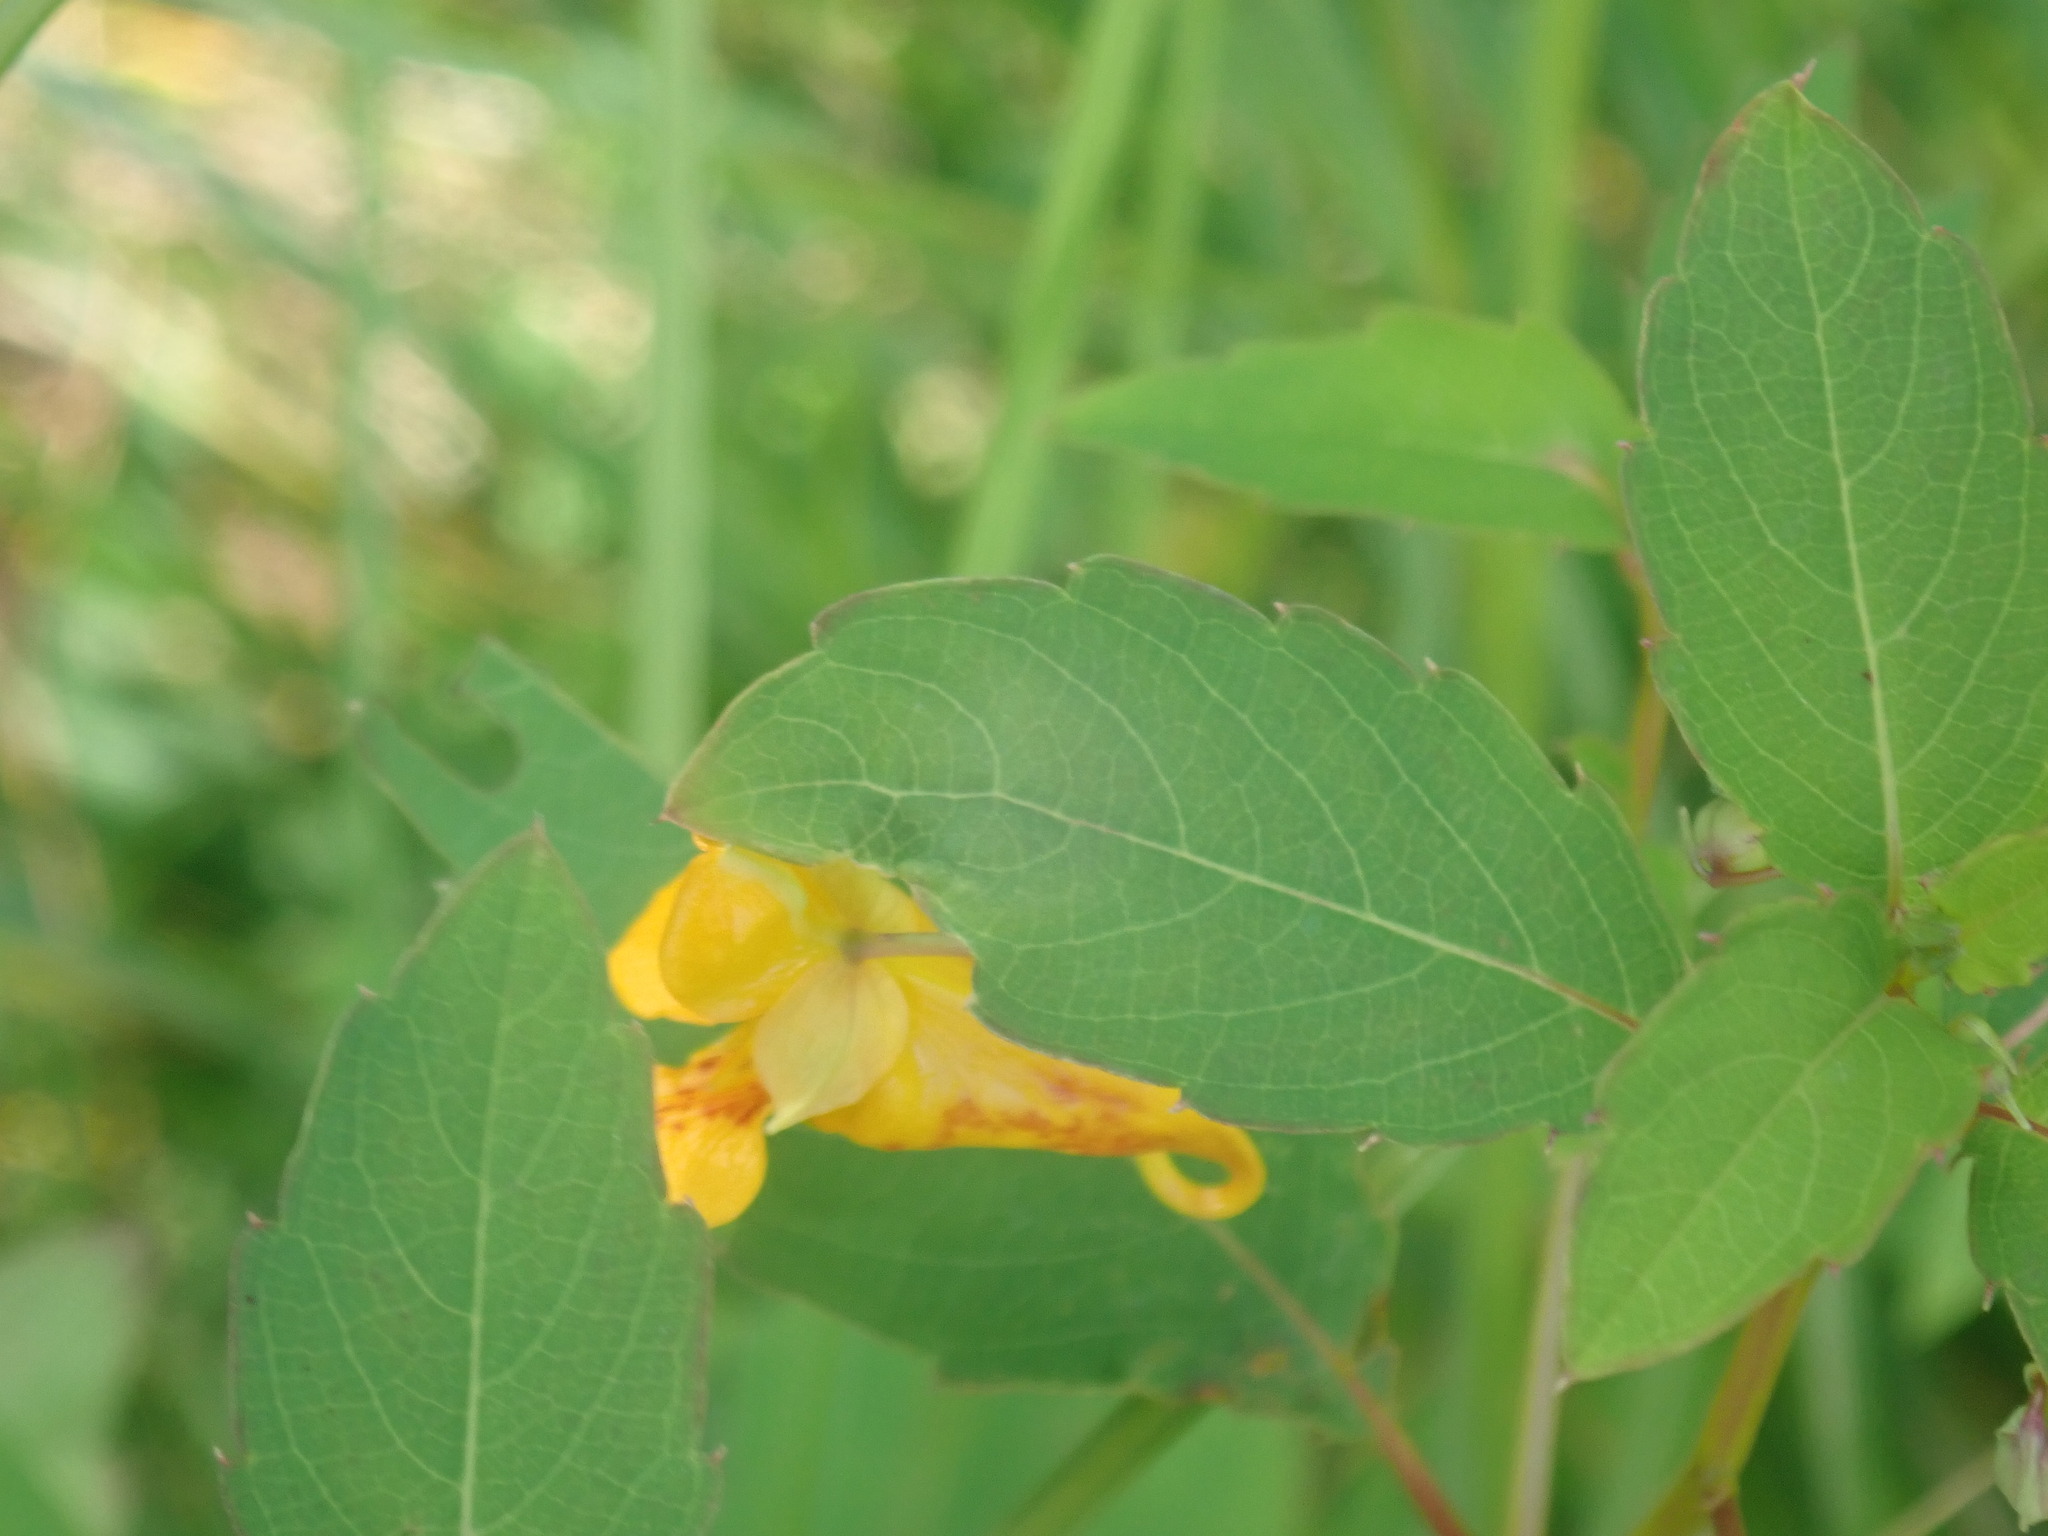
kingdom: Plantae
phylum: Tracheophyta
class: Magnoliopsida
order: Ericales
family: Balsaminaceae
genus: Impatiens
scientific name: Impatiens capensis
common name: Orange balsam
